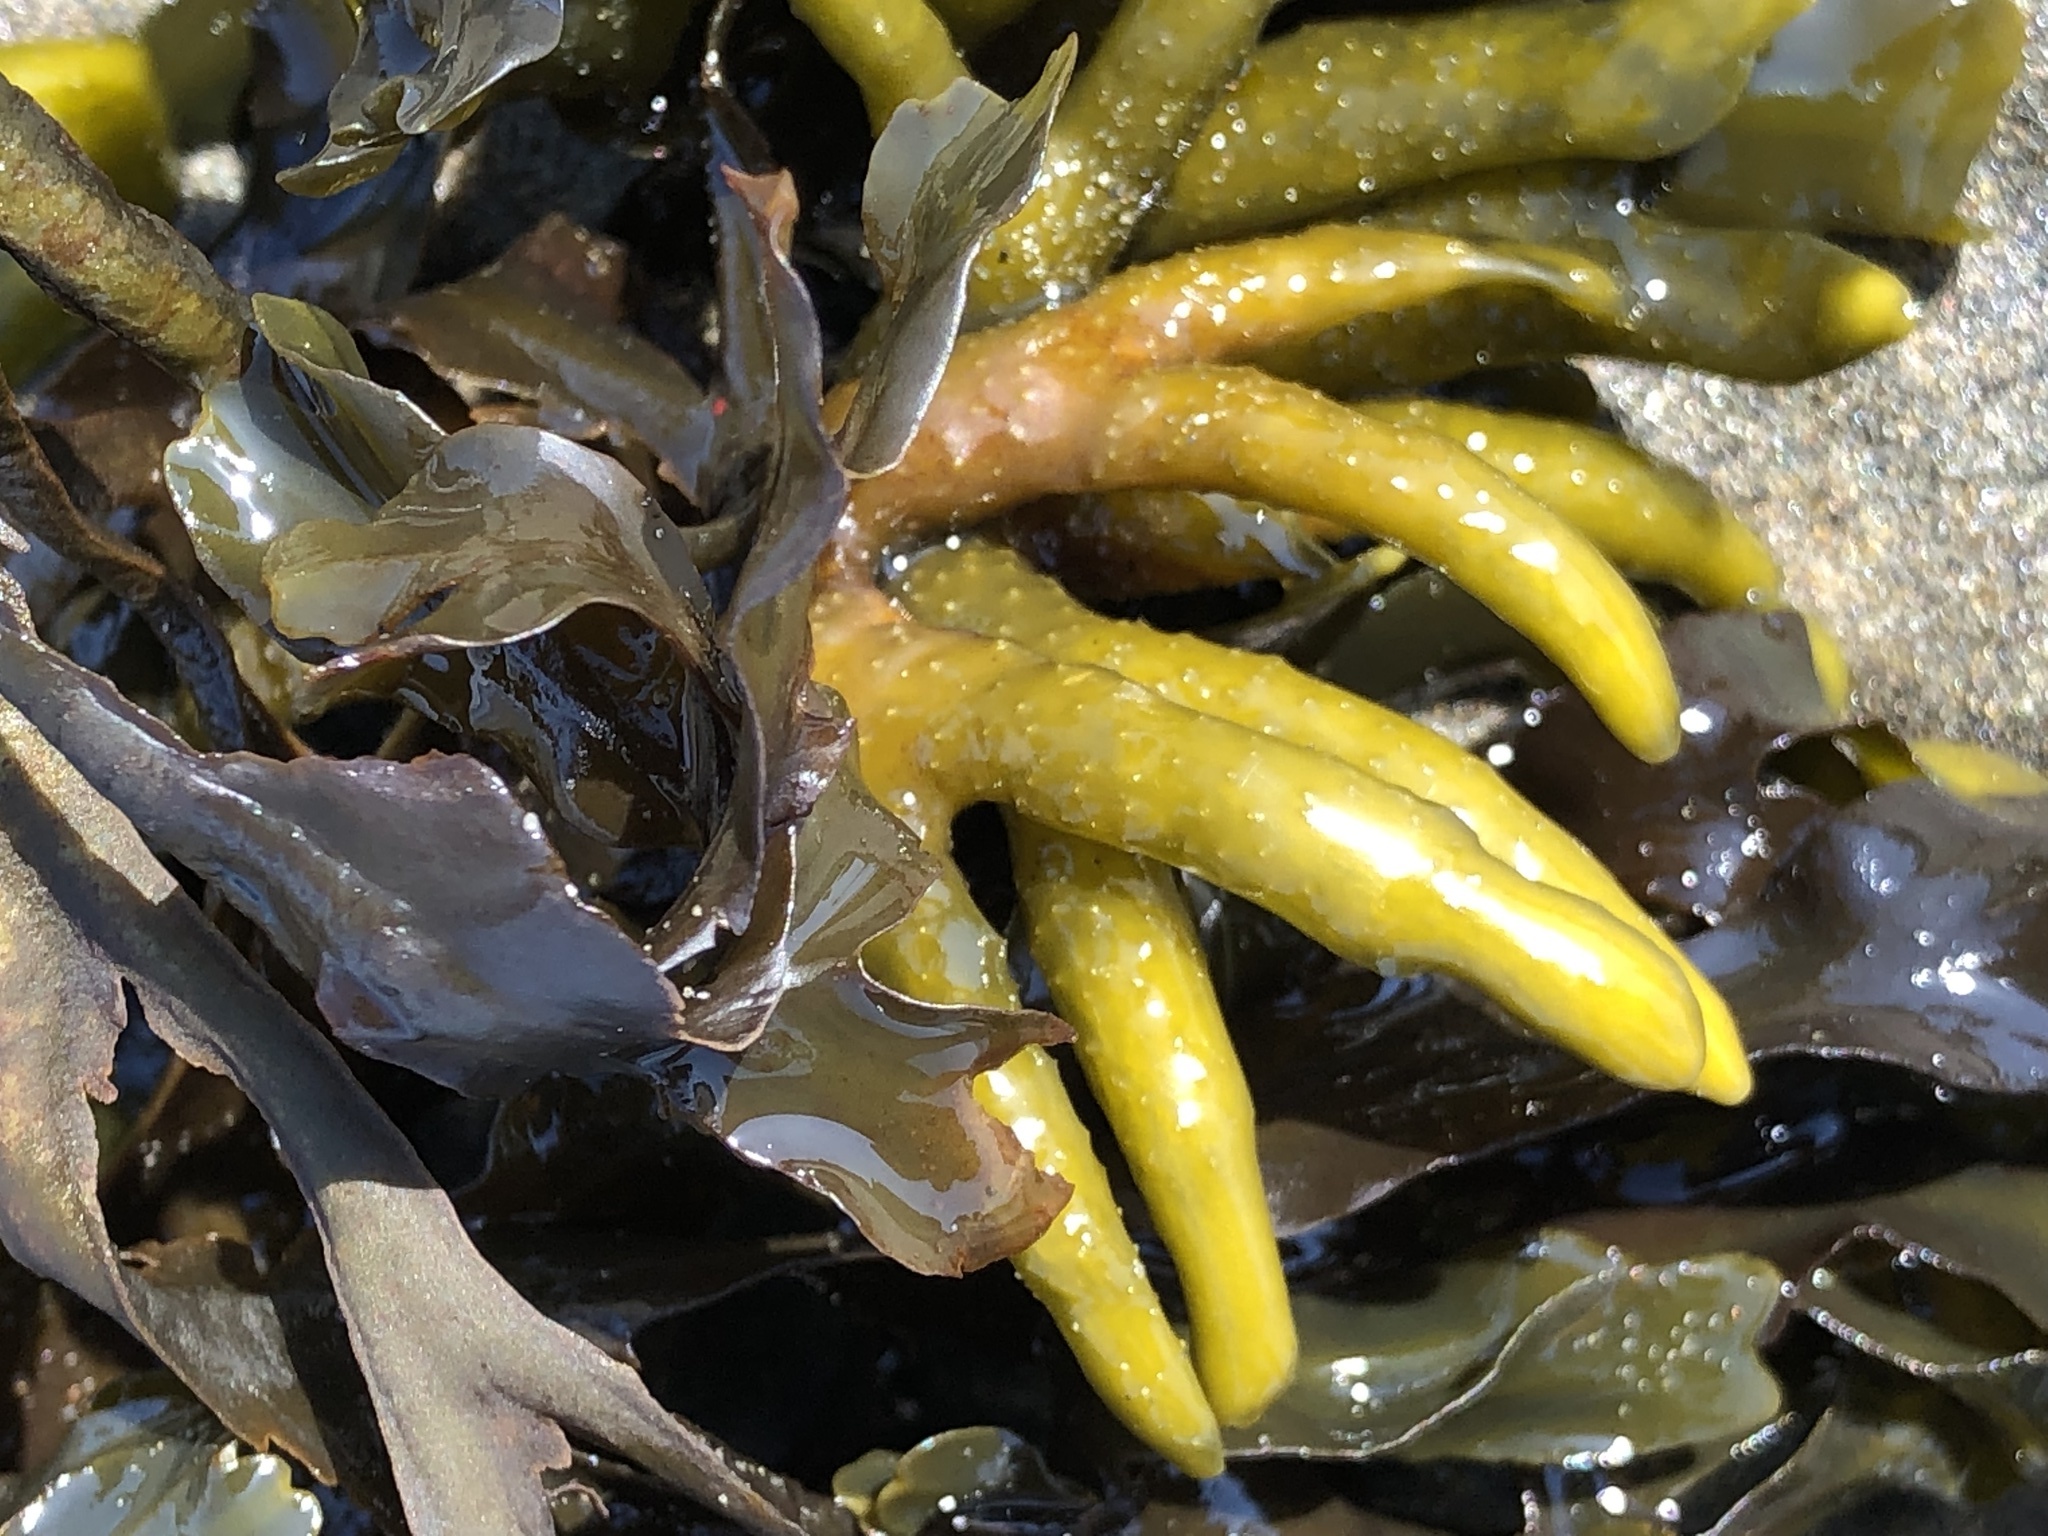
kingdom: Chromista
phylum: Ochrophyta
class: Phaeophyceae
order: Fucales
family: Fucaceae
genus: Fucus
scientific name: Fucus distichus
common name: Rockweed
